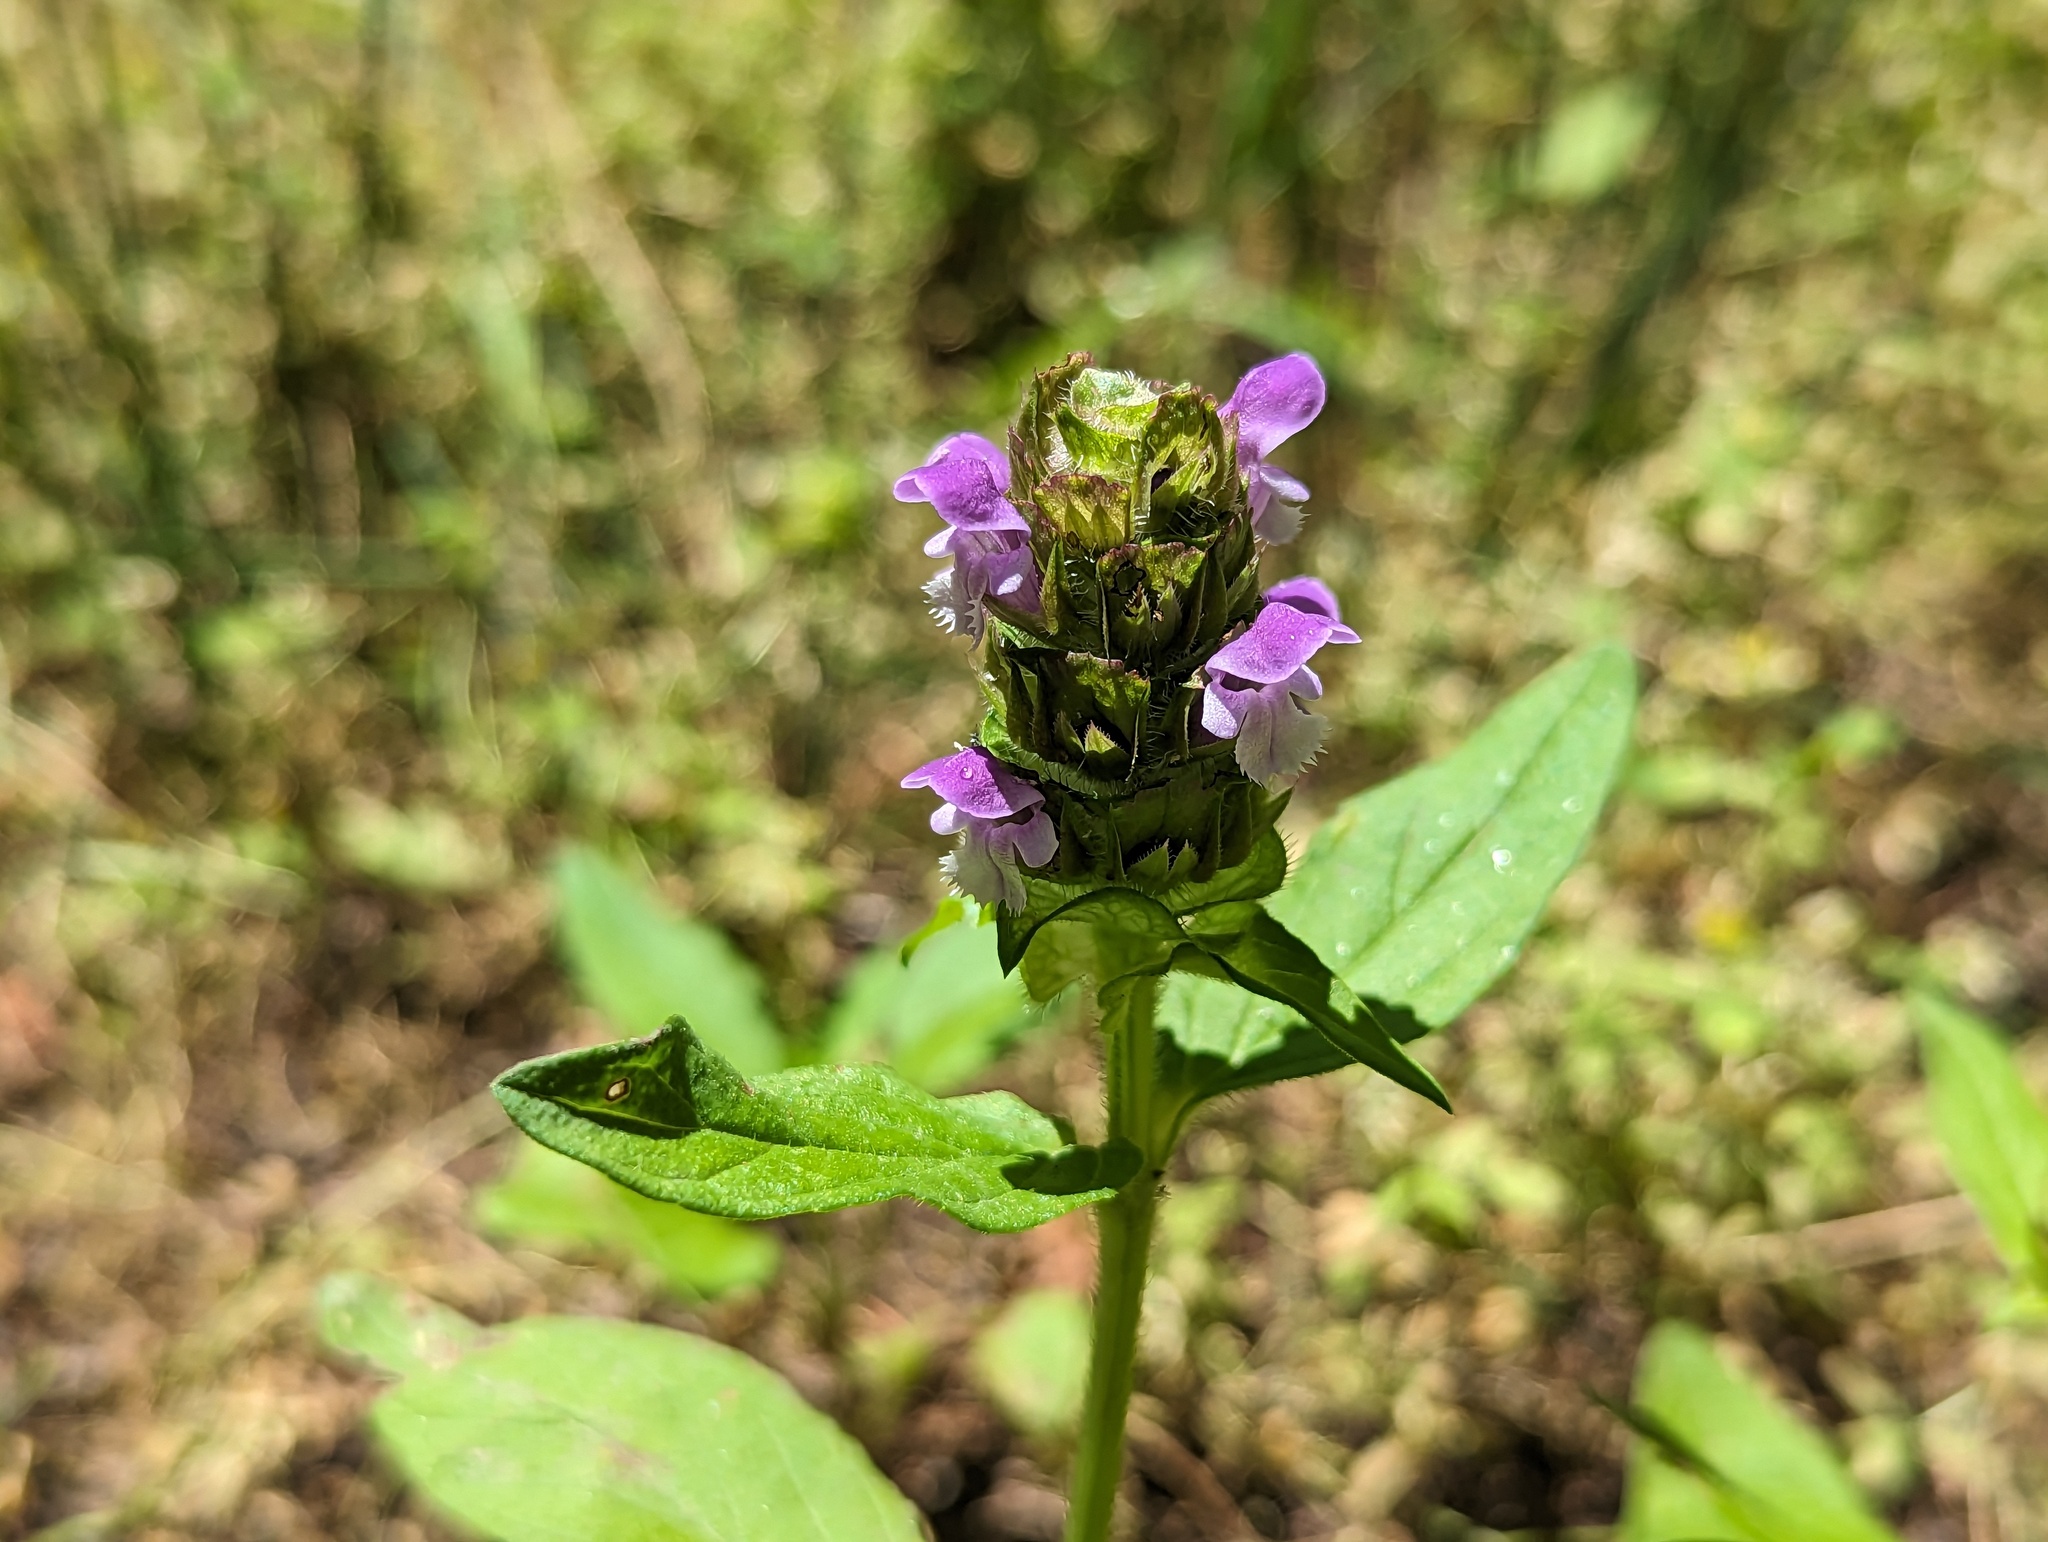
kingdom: Plantae
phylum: Tracheophyta
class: Magnoliopsida
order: Lamiales
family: Lamiaceae
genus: Prunella
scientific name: Prunella vulgaris
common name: Heal-all
